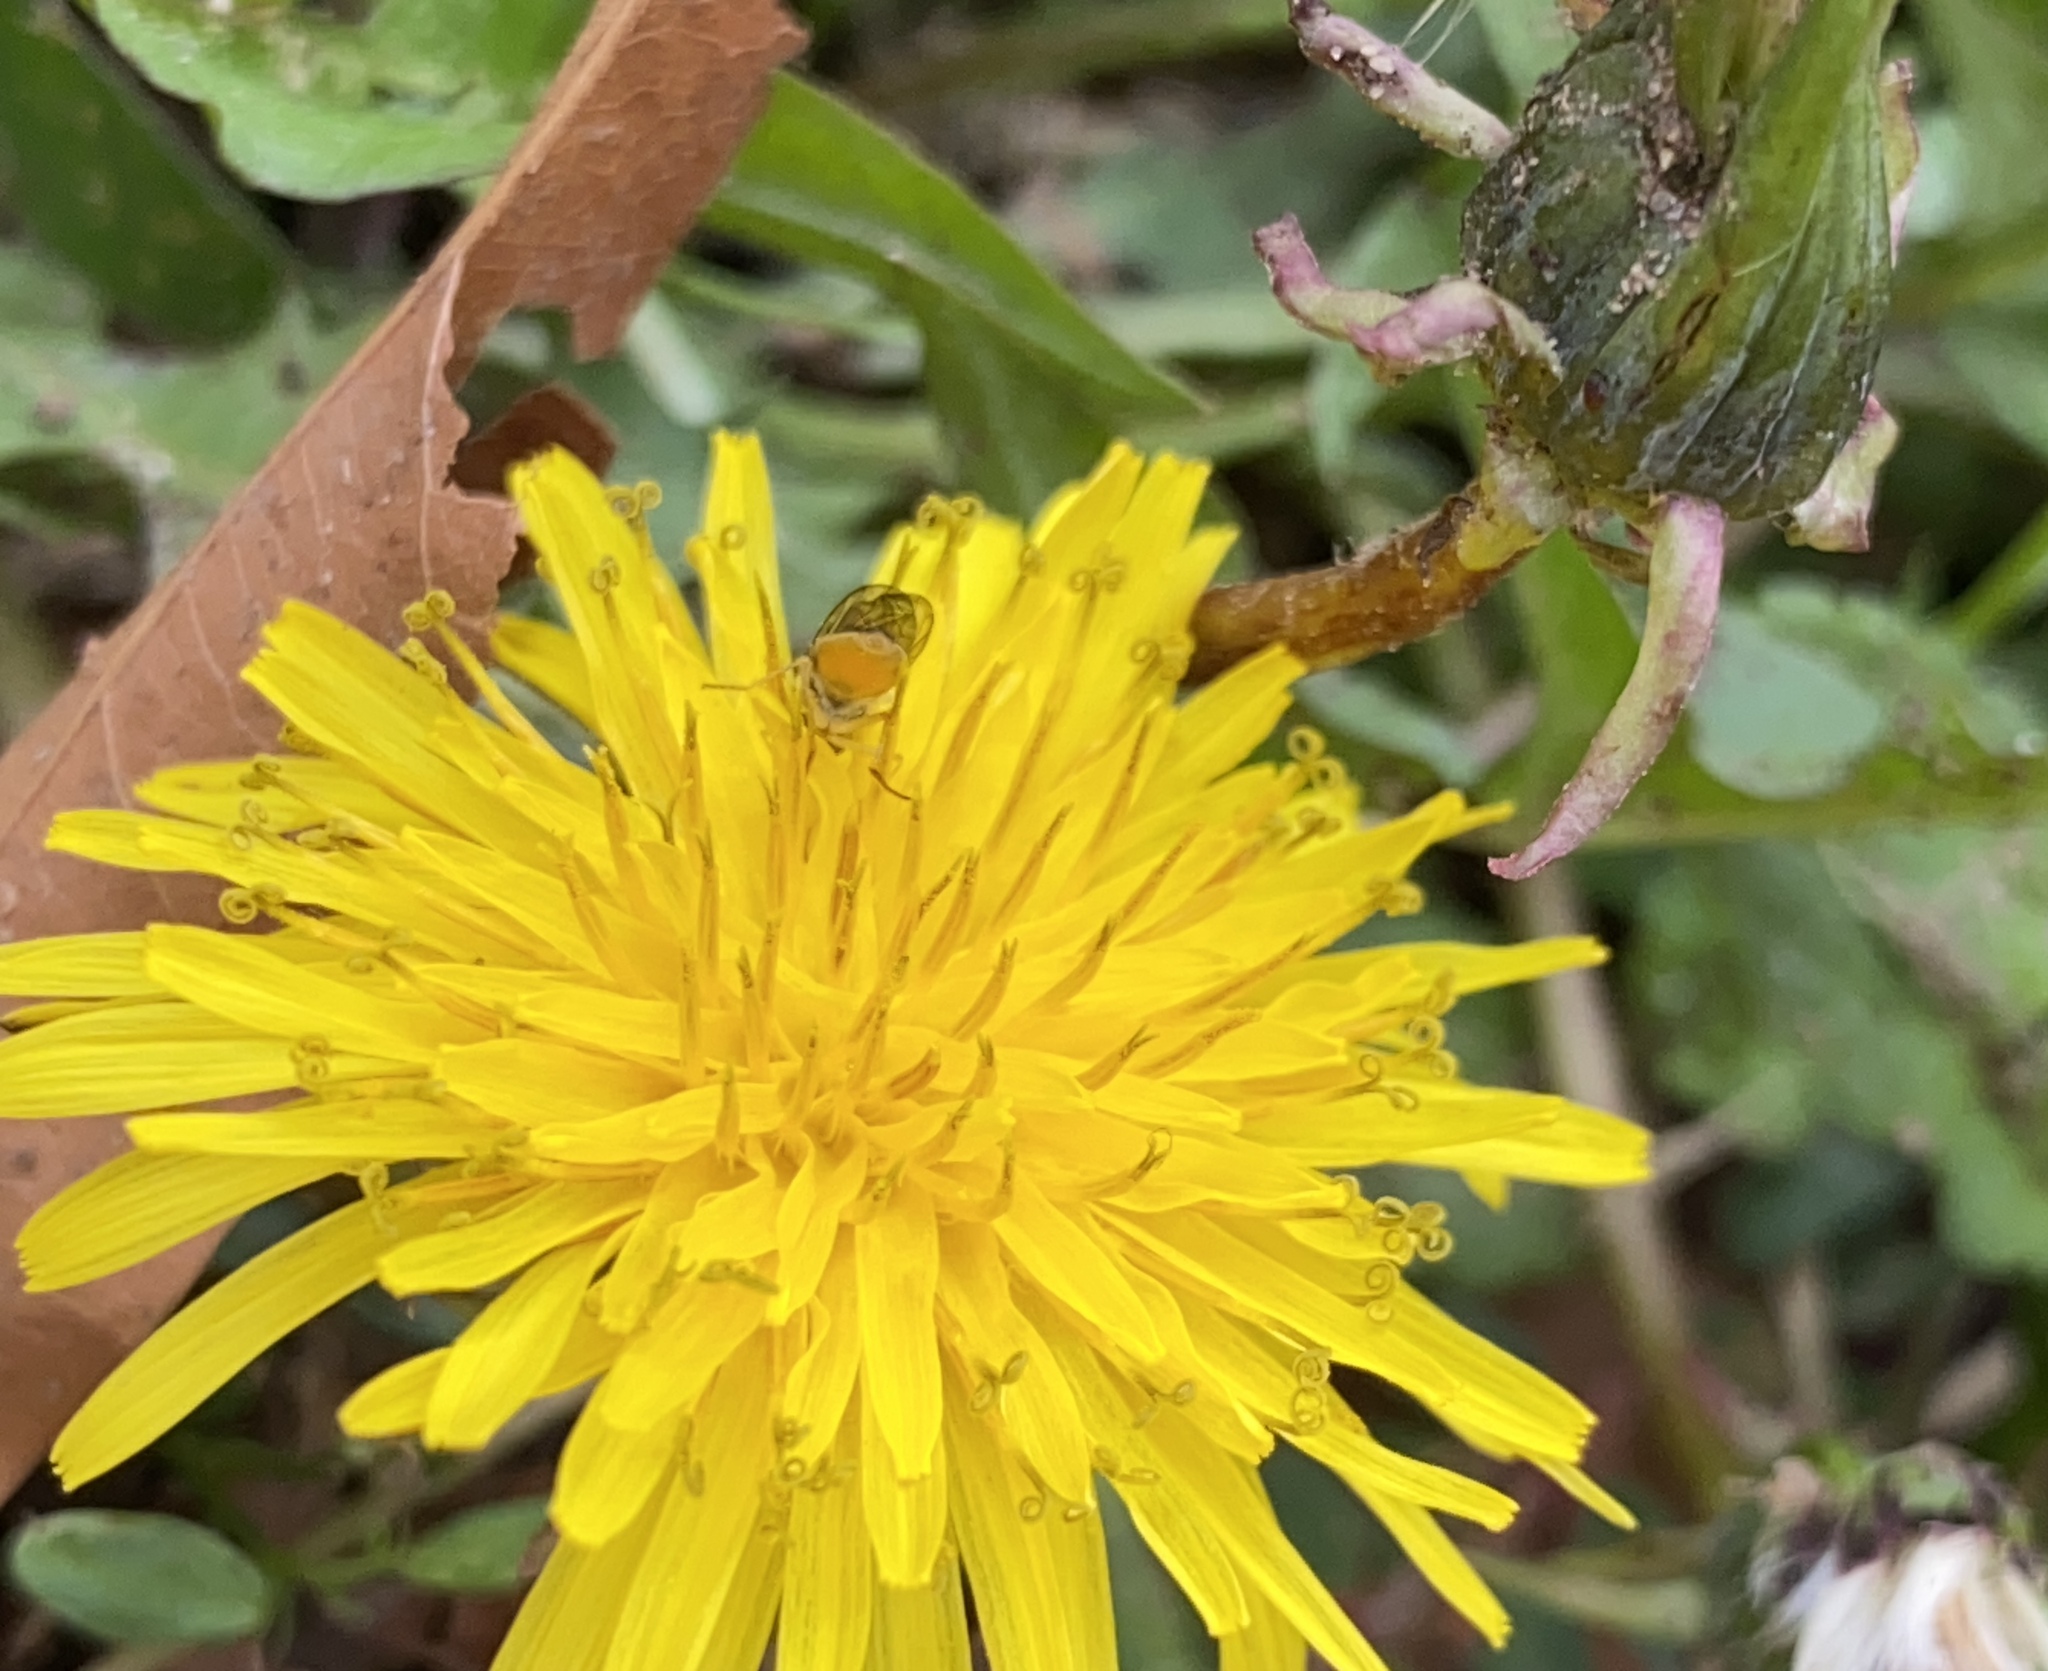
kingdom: Plantae
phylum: Tracheophyta
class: Magnoliopsida
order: Asterales
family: Asteraceae
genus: Taraxacum
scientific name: Taraxacum
